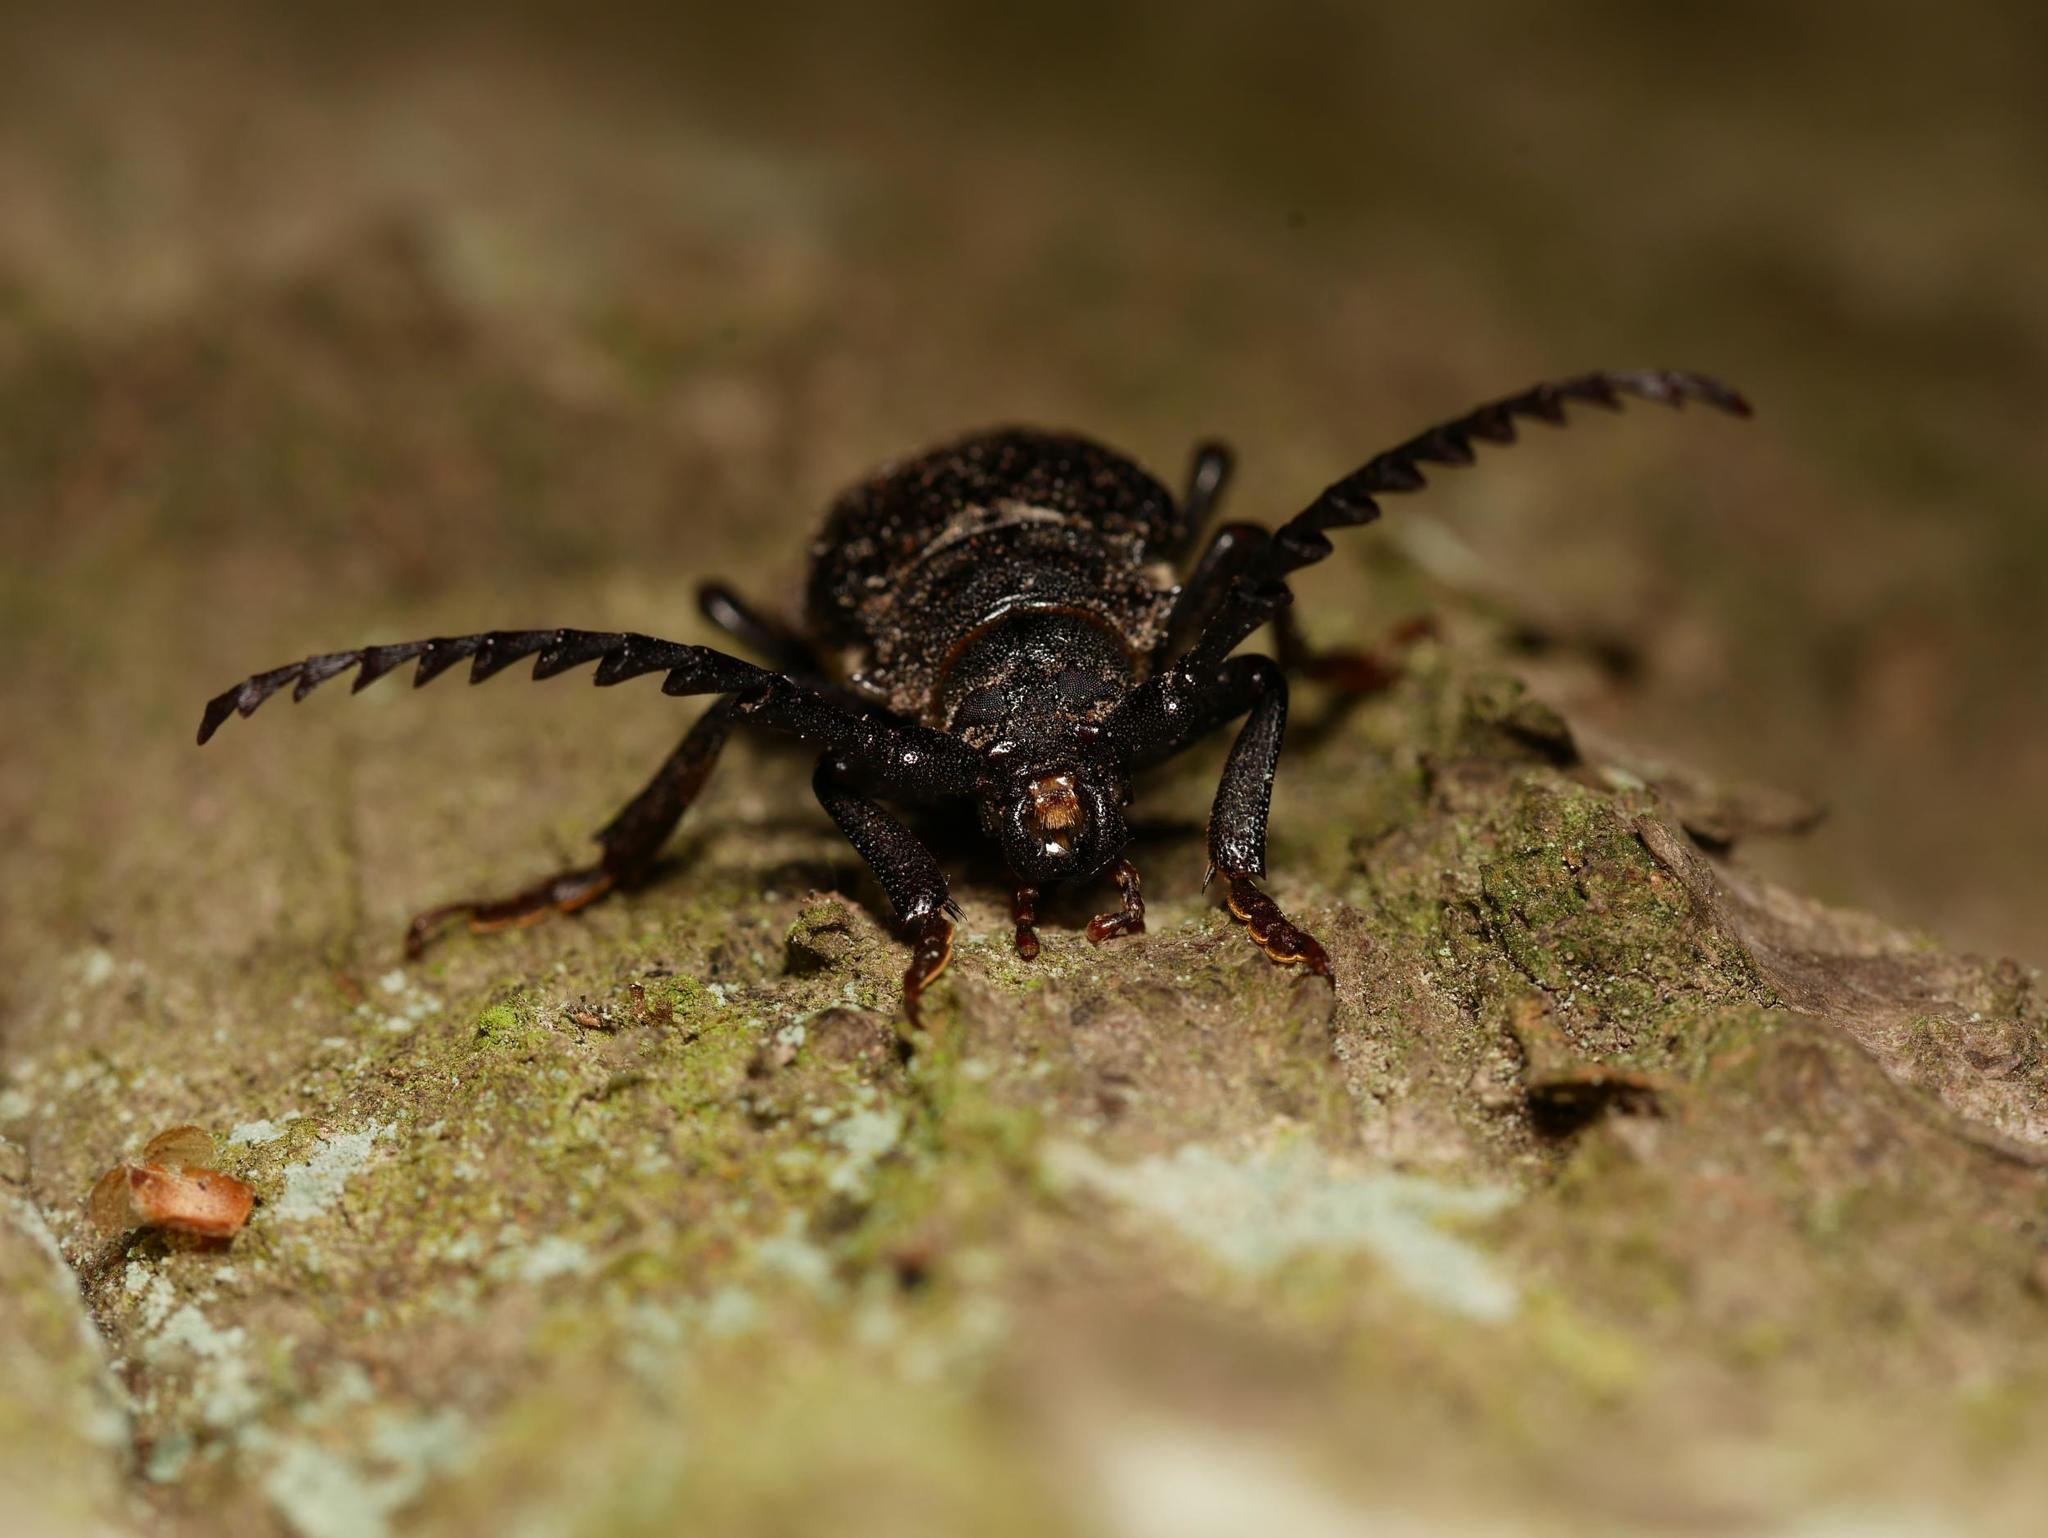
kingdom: Animalia
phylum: Arthropoda
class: Insecta
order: Coleoptera
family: Cerambycidae
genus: Prionus
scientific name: Prionus coriarius
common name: Tanner beetle
